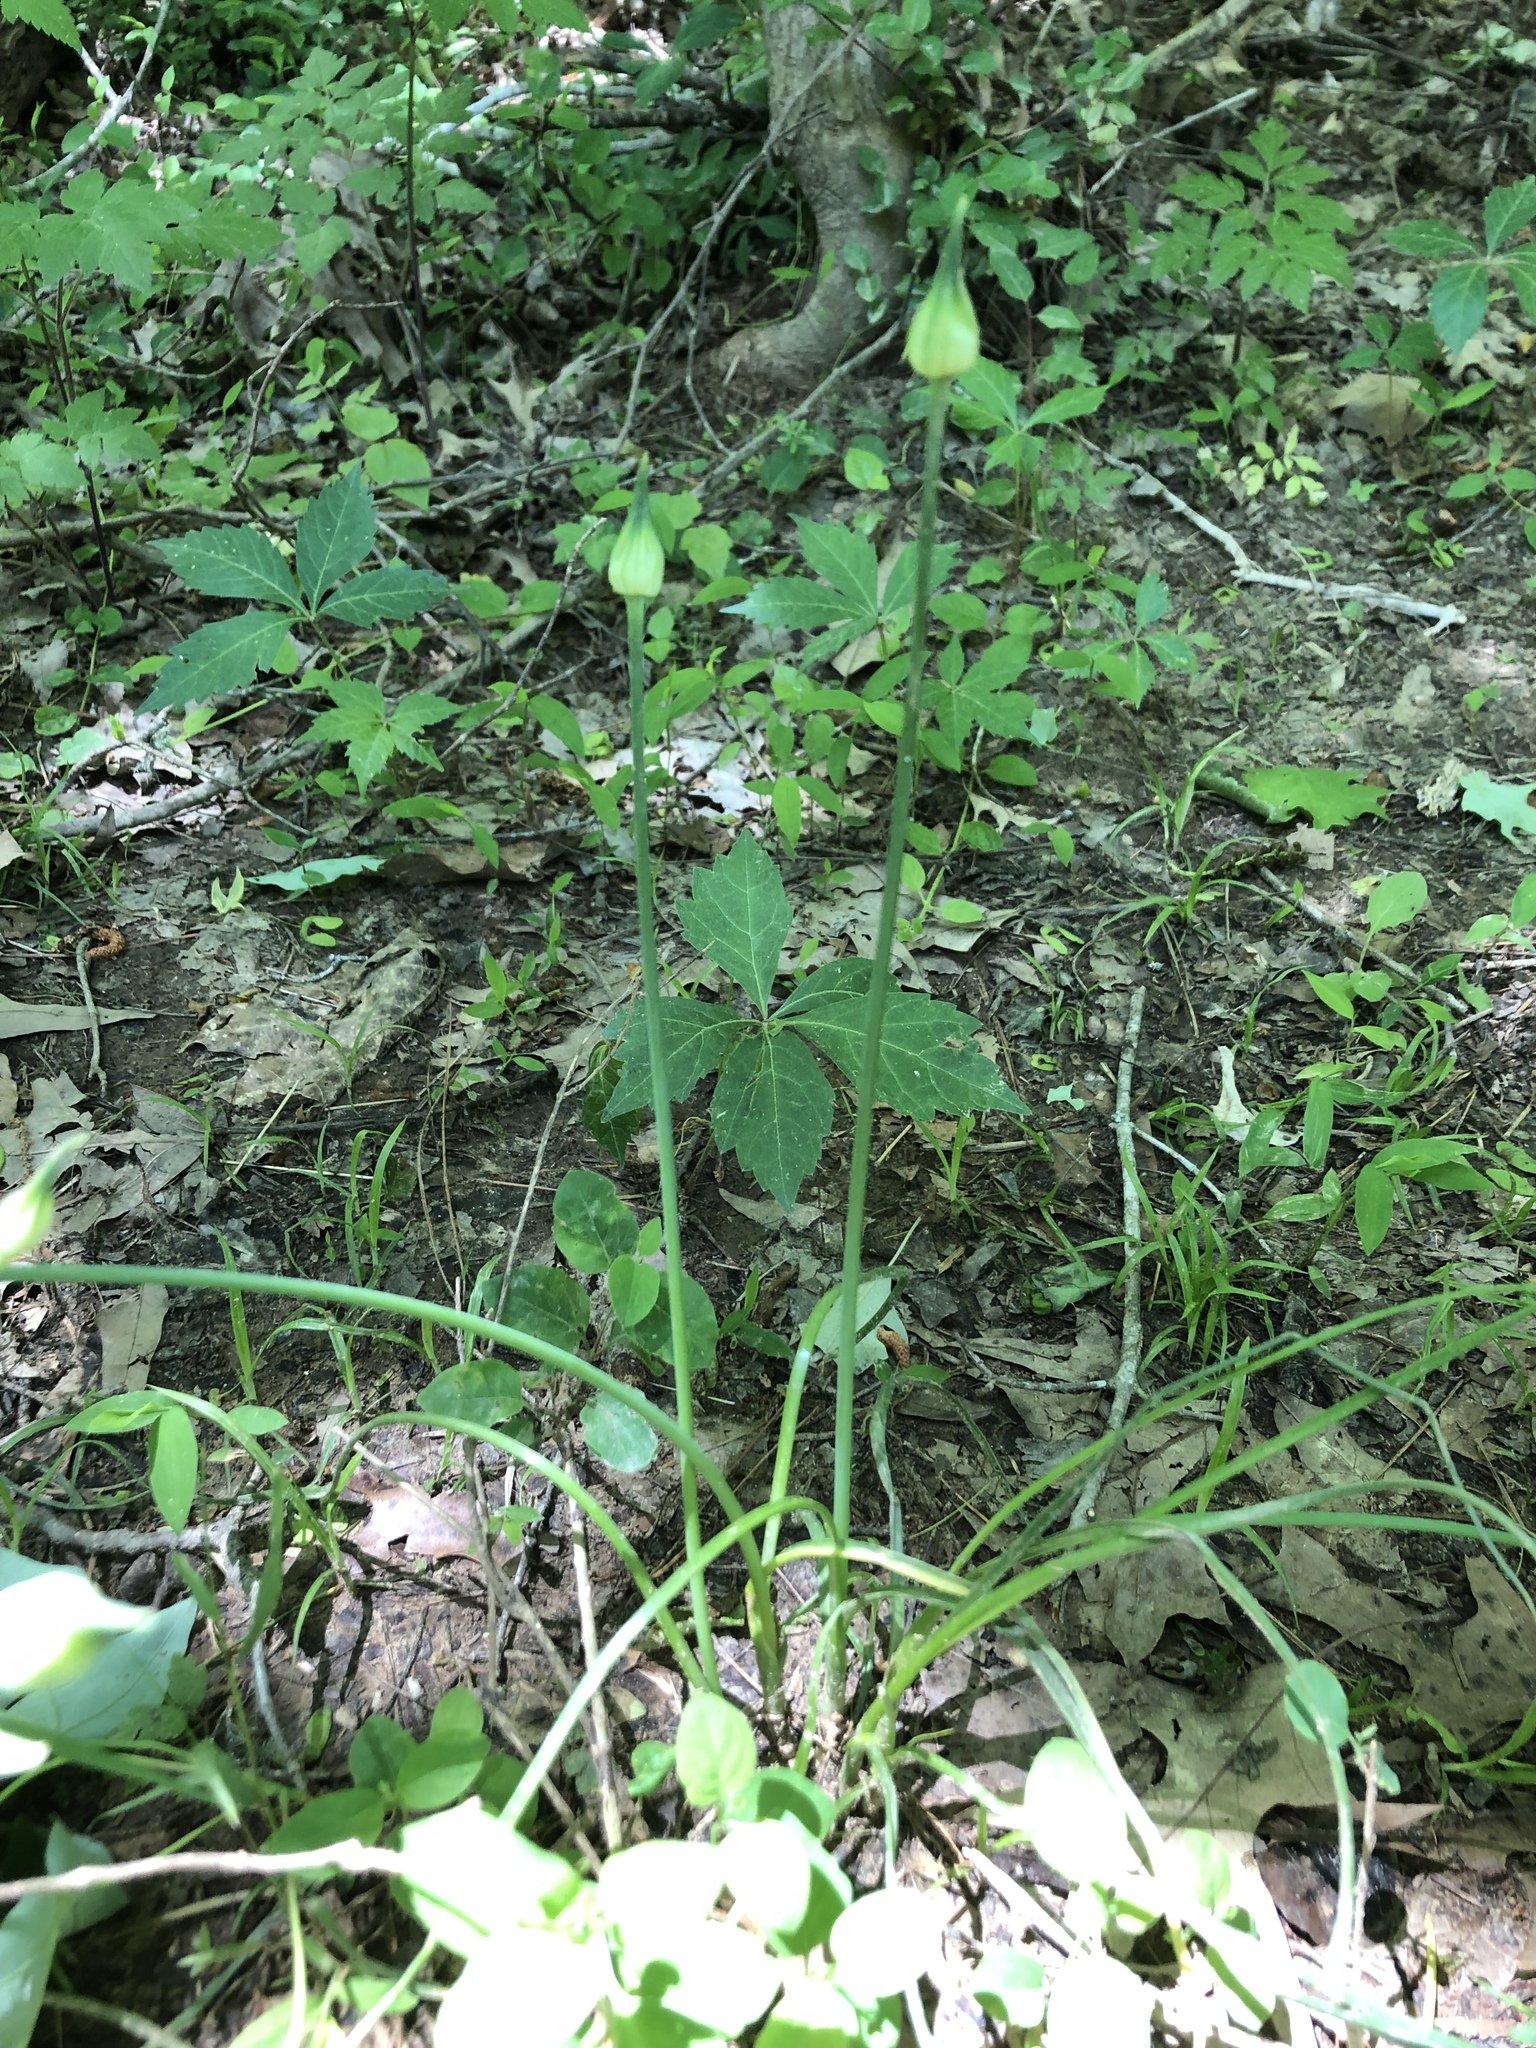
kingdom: Plantae
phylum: Tracheophyta
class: Liliopsida
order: Asparagales
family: Amaryllidaceae
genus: Allium
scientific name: Allium canadense
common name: Meadow garlic
